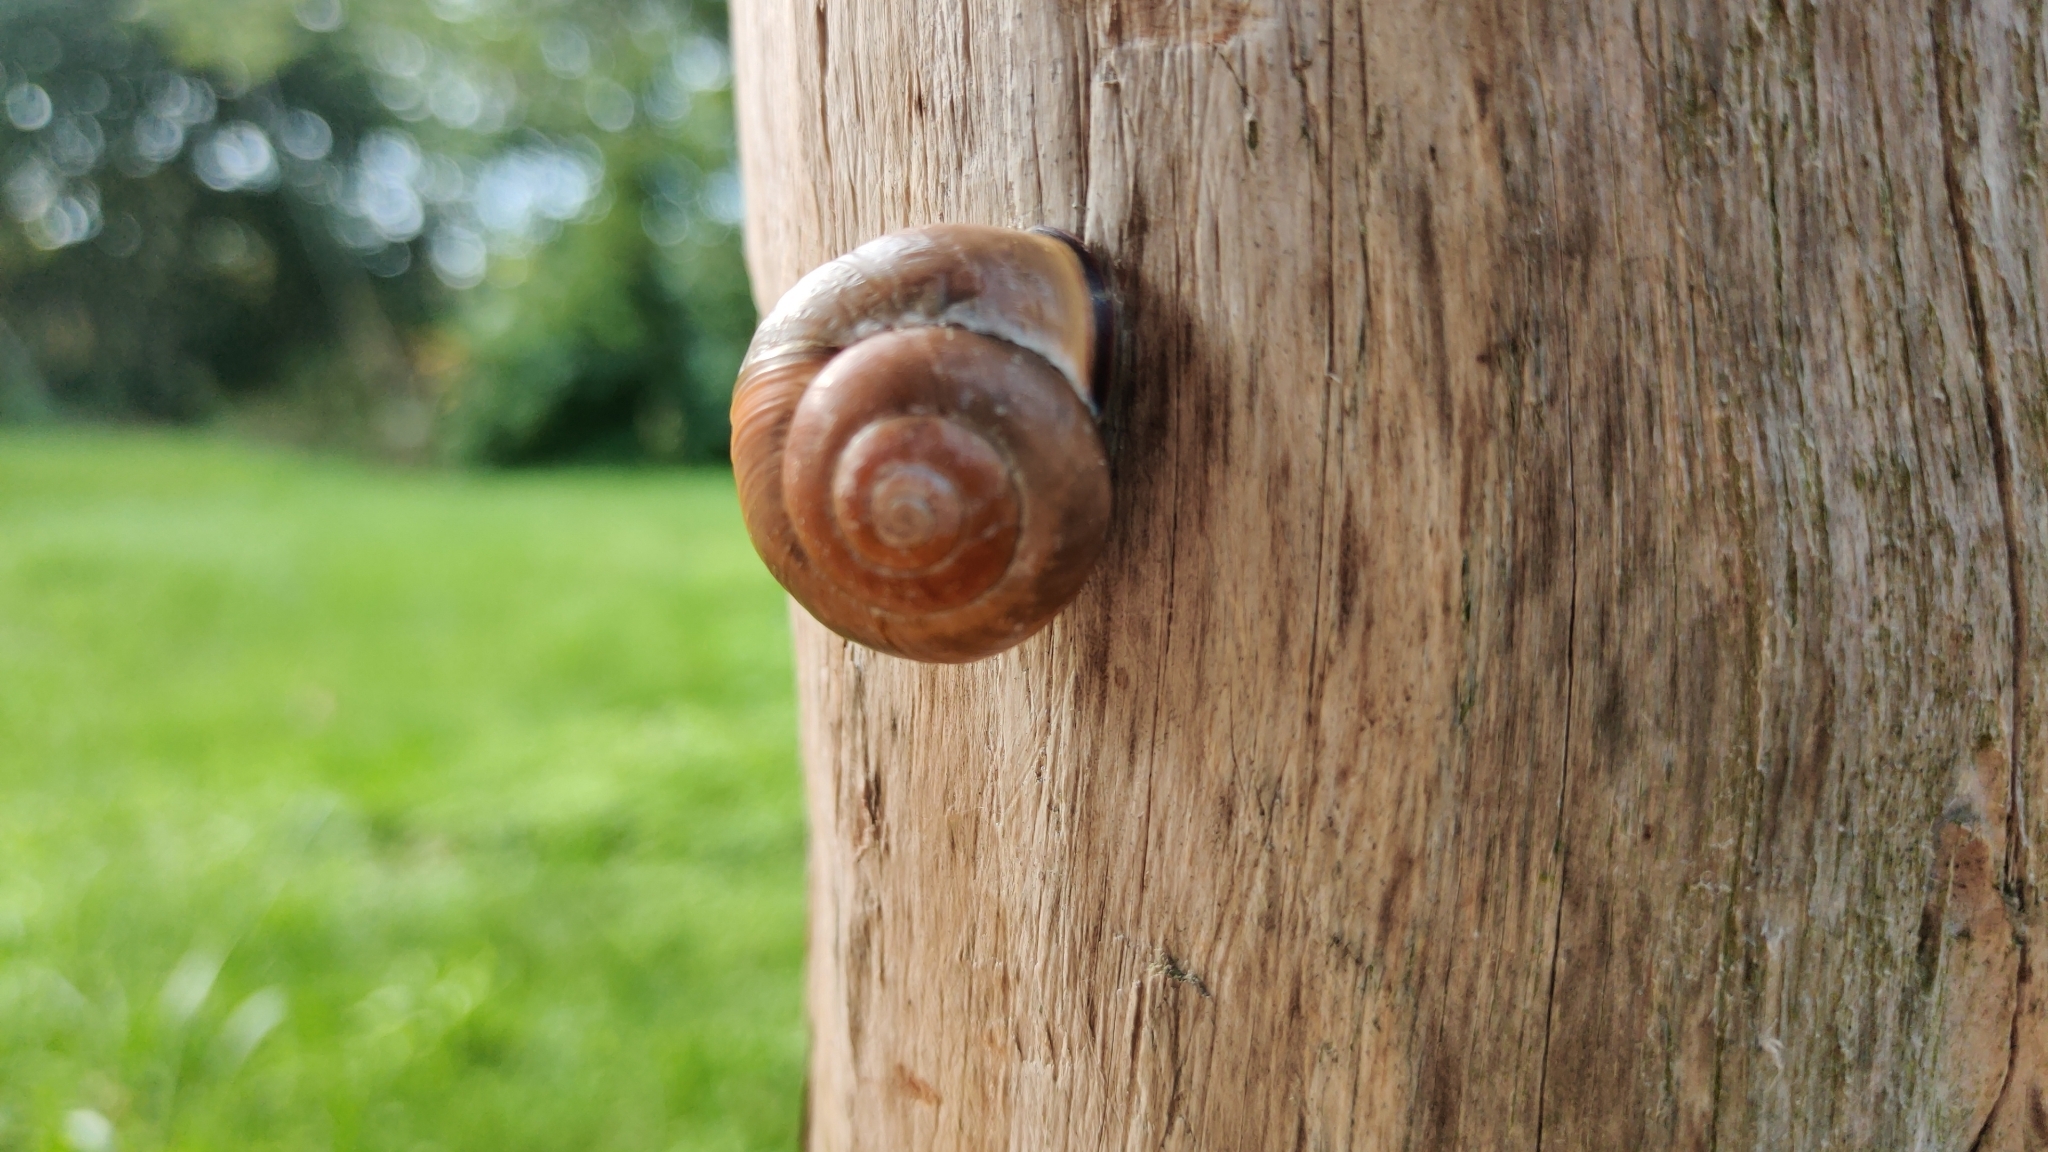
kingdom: Animalia
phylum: Mollusca
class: Gastropoda
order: Stylommatophora
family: Helicidae
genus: Cepaea
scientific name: Cepaea nemoralis
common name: Grovesnail
